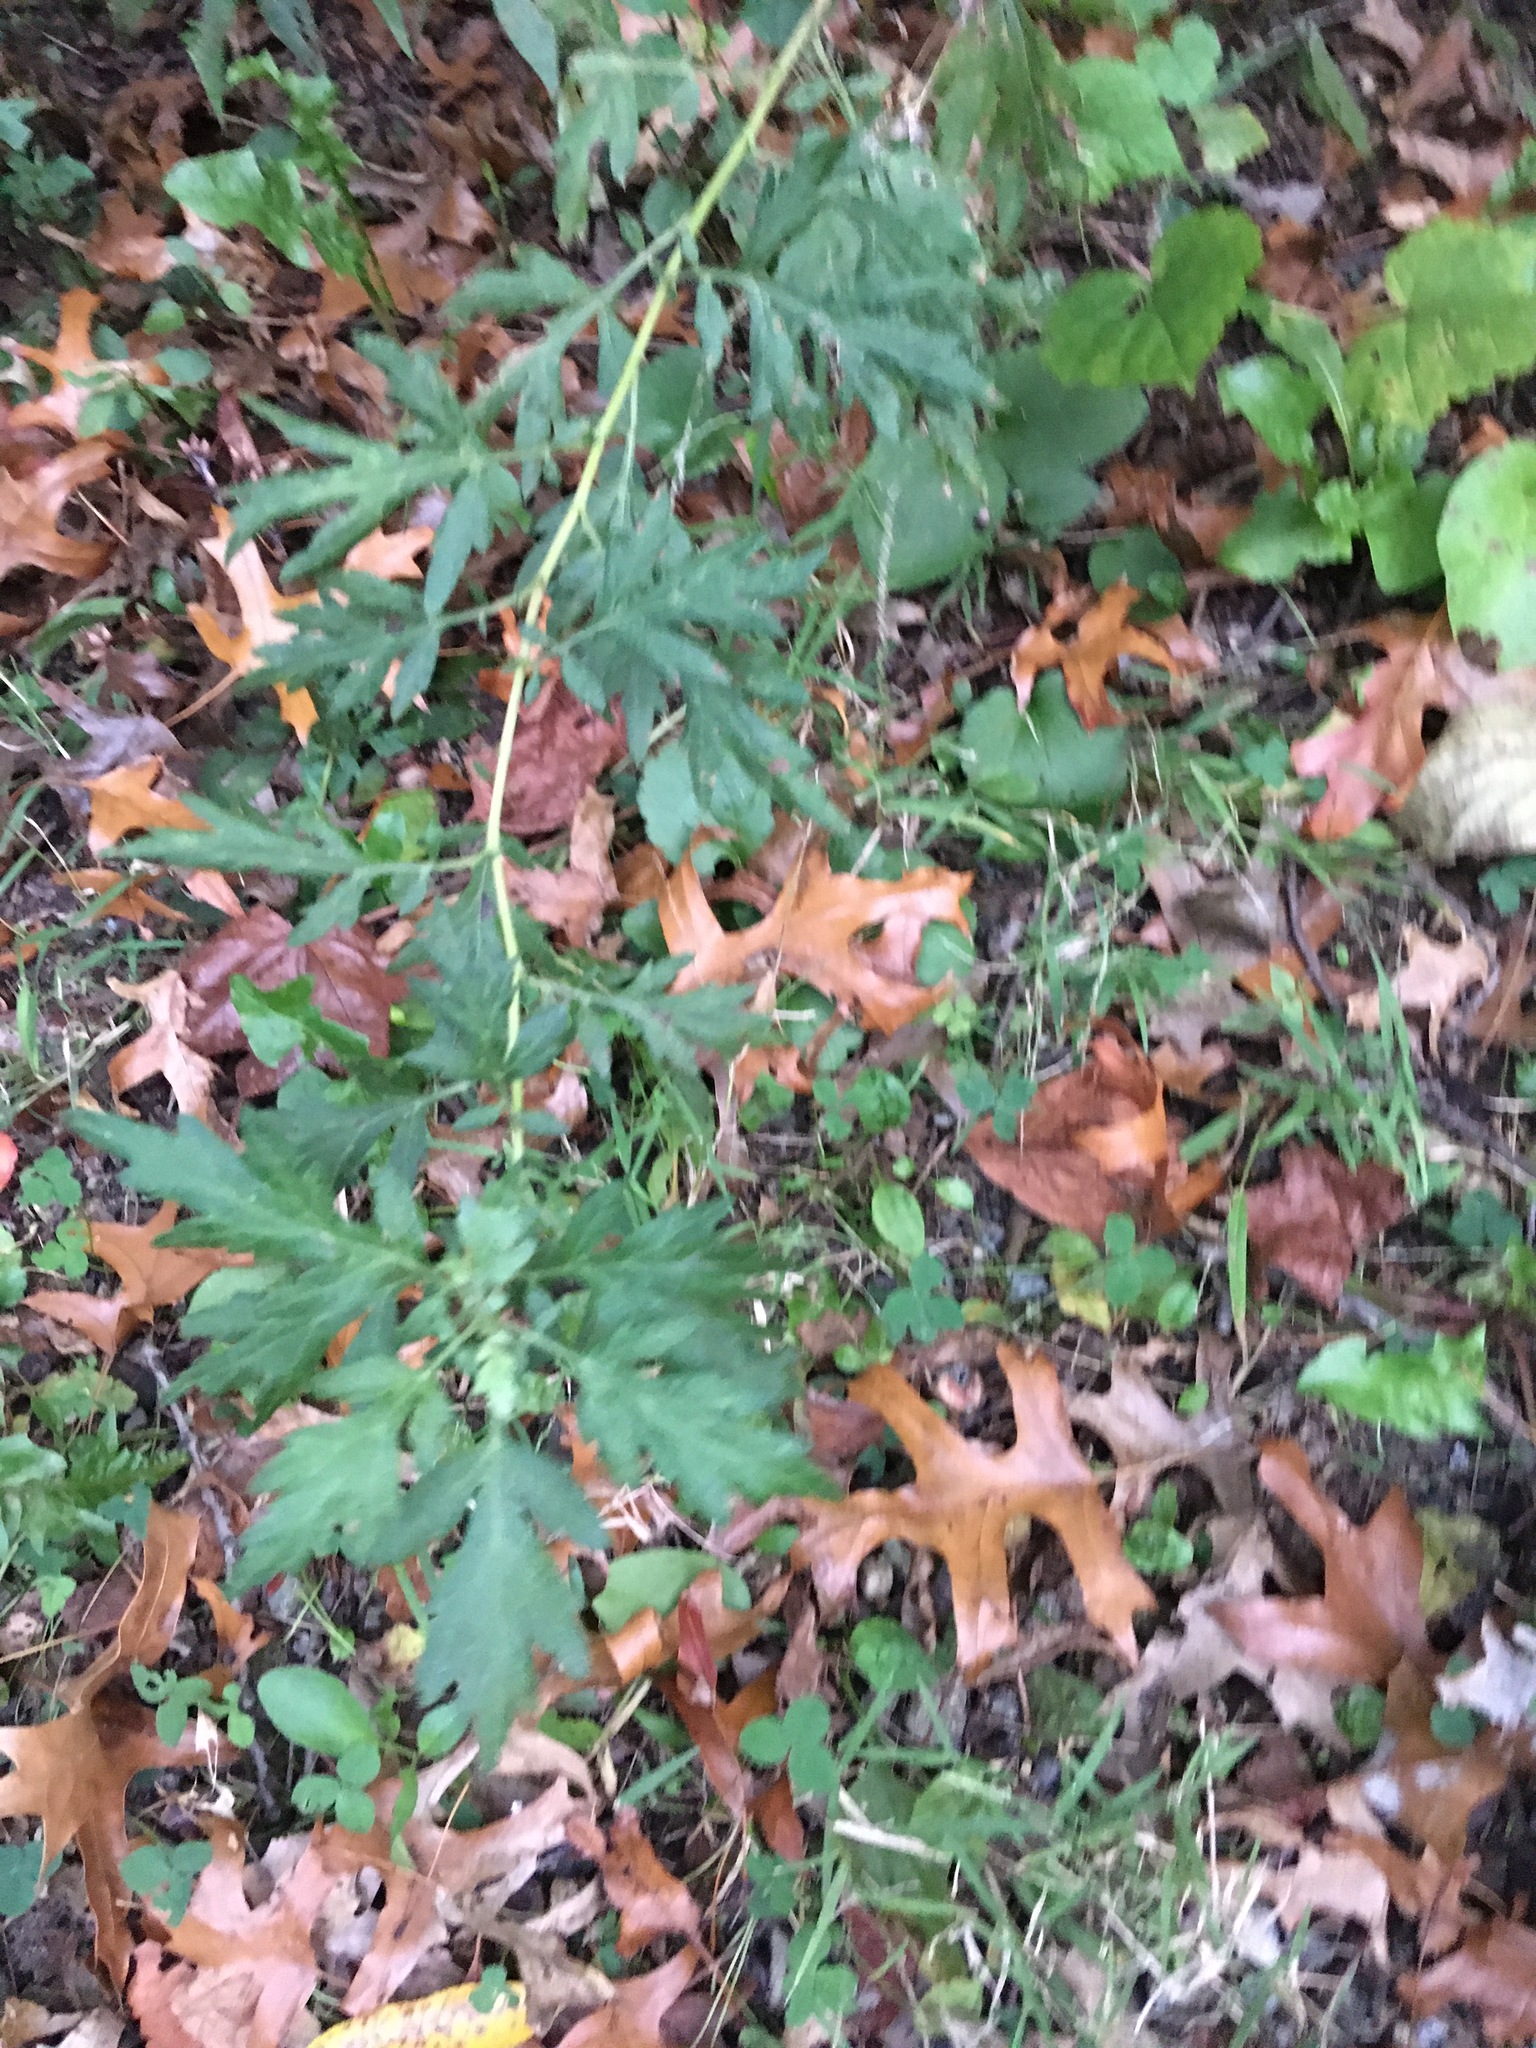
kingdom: Plantae
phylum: Tracheophyta
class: Magnoliopsida
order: Asterales
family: Asteraceae
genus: Artemisia
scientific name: Artemisia vulgaris
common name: Mugwort
